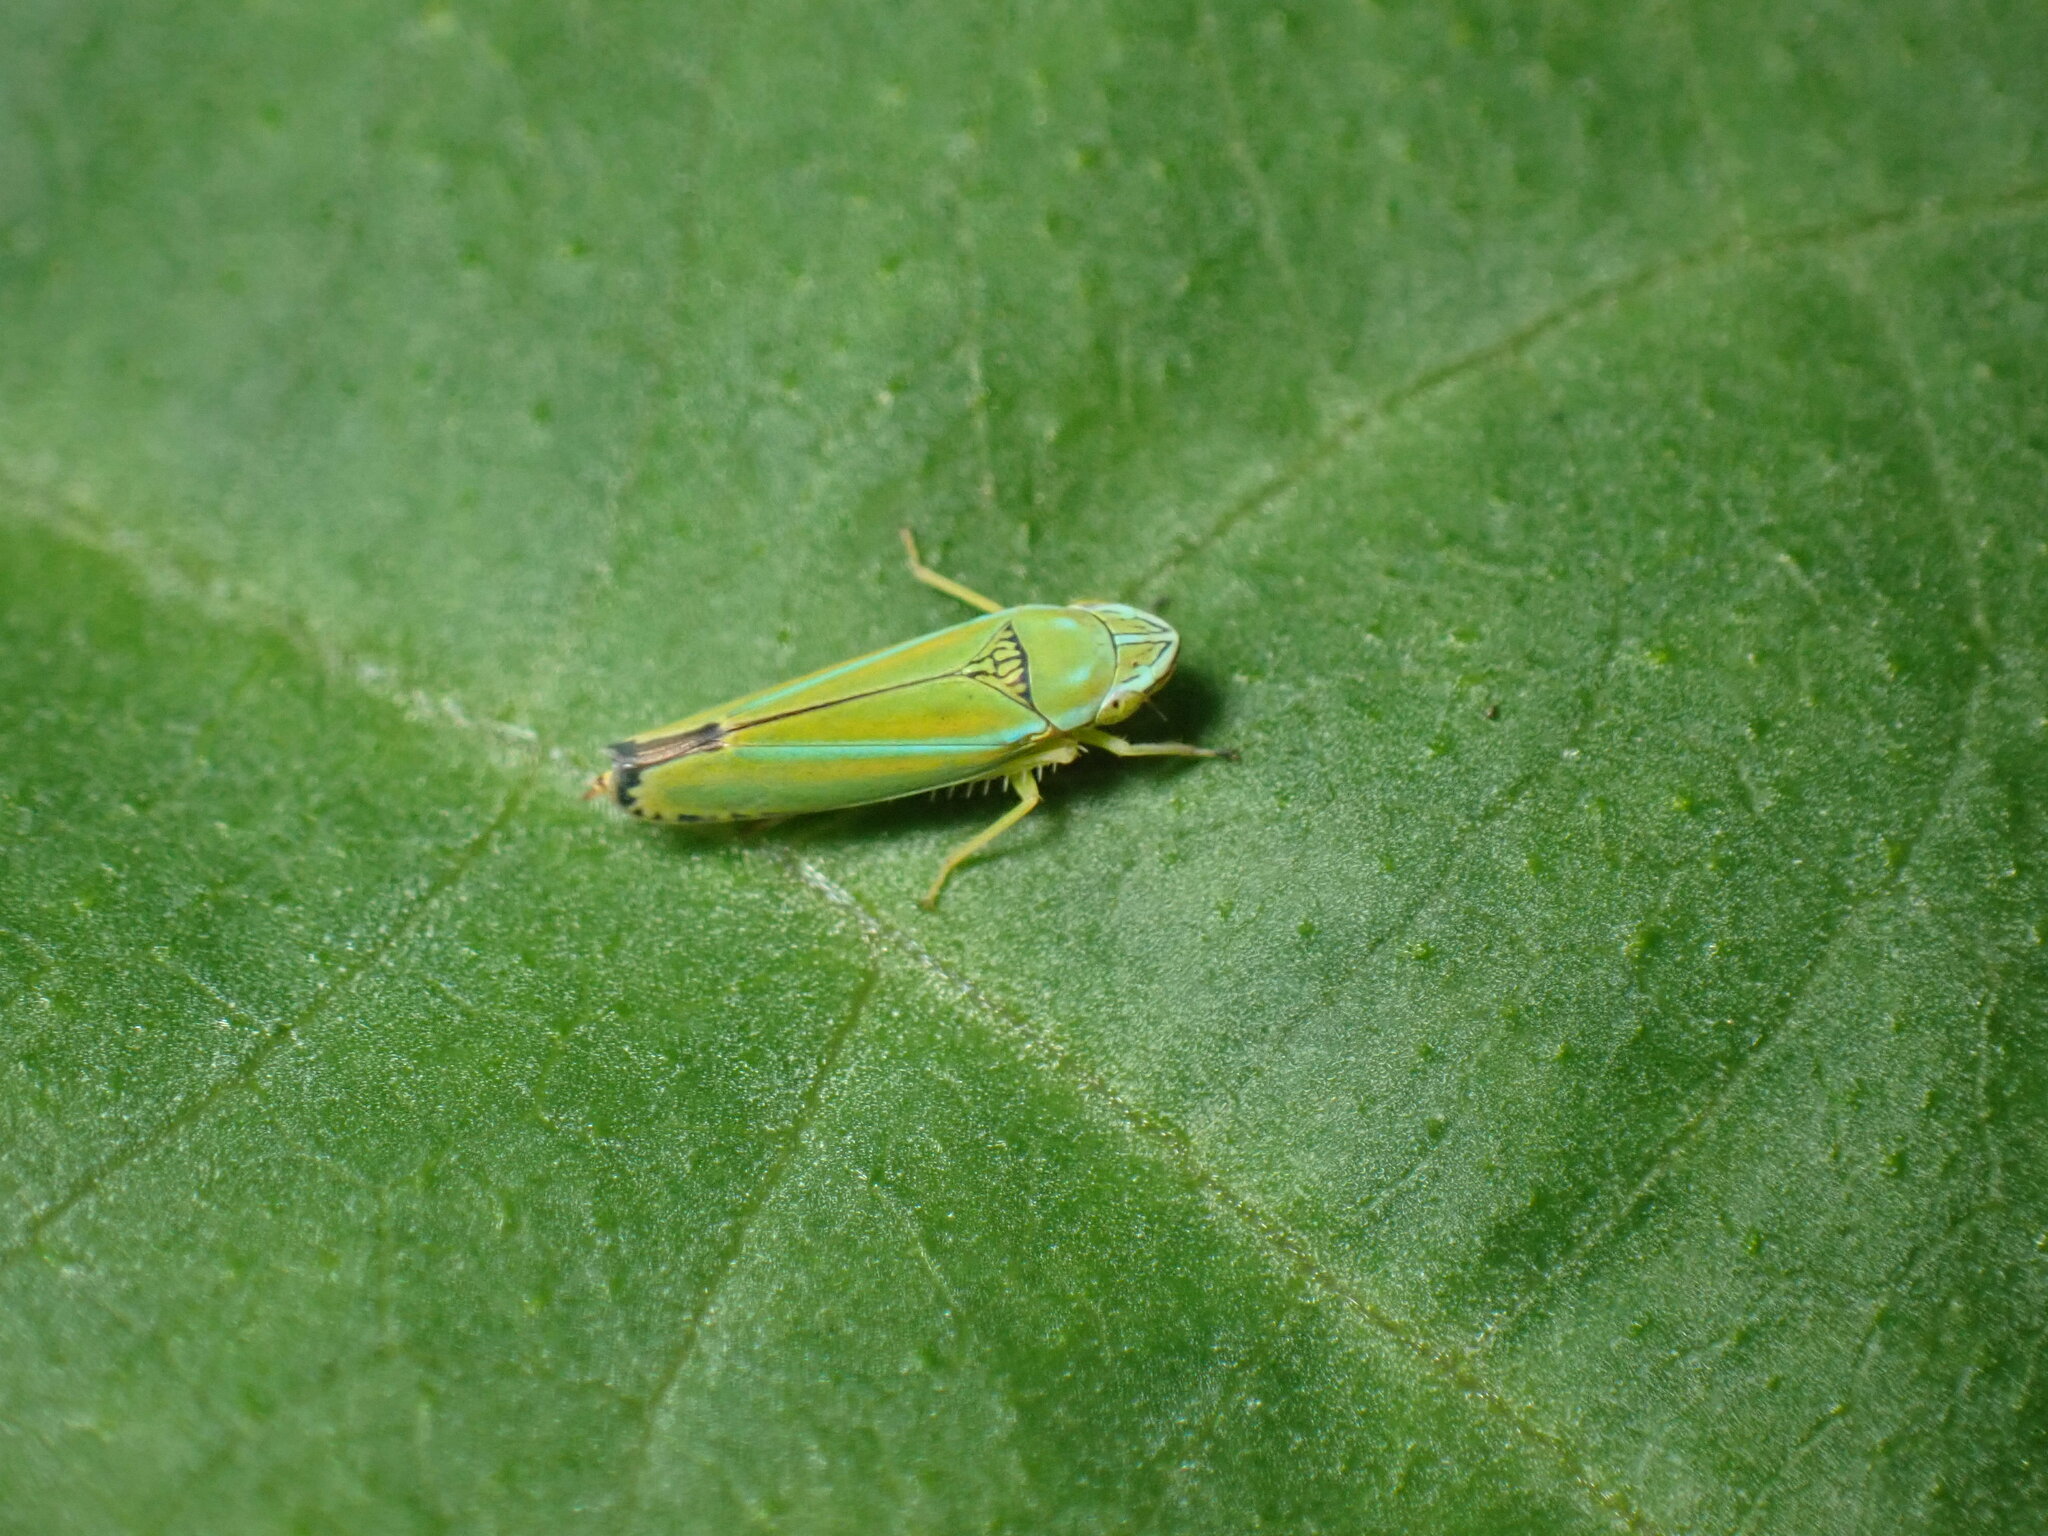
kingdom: Animalia
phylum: Arthropoda
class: Insecta
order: Hemiptera
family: Cicadellidae
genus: Graphocephala
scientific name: Graphocephala versuta
